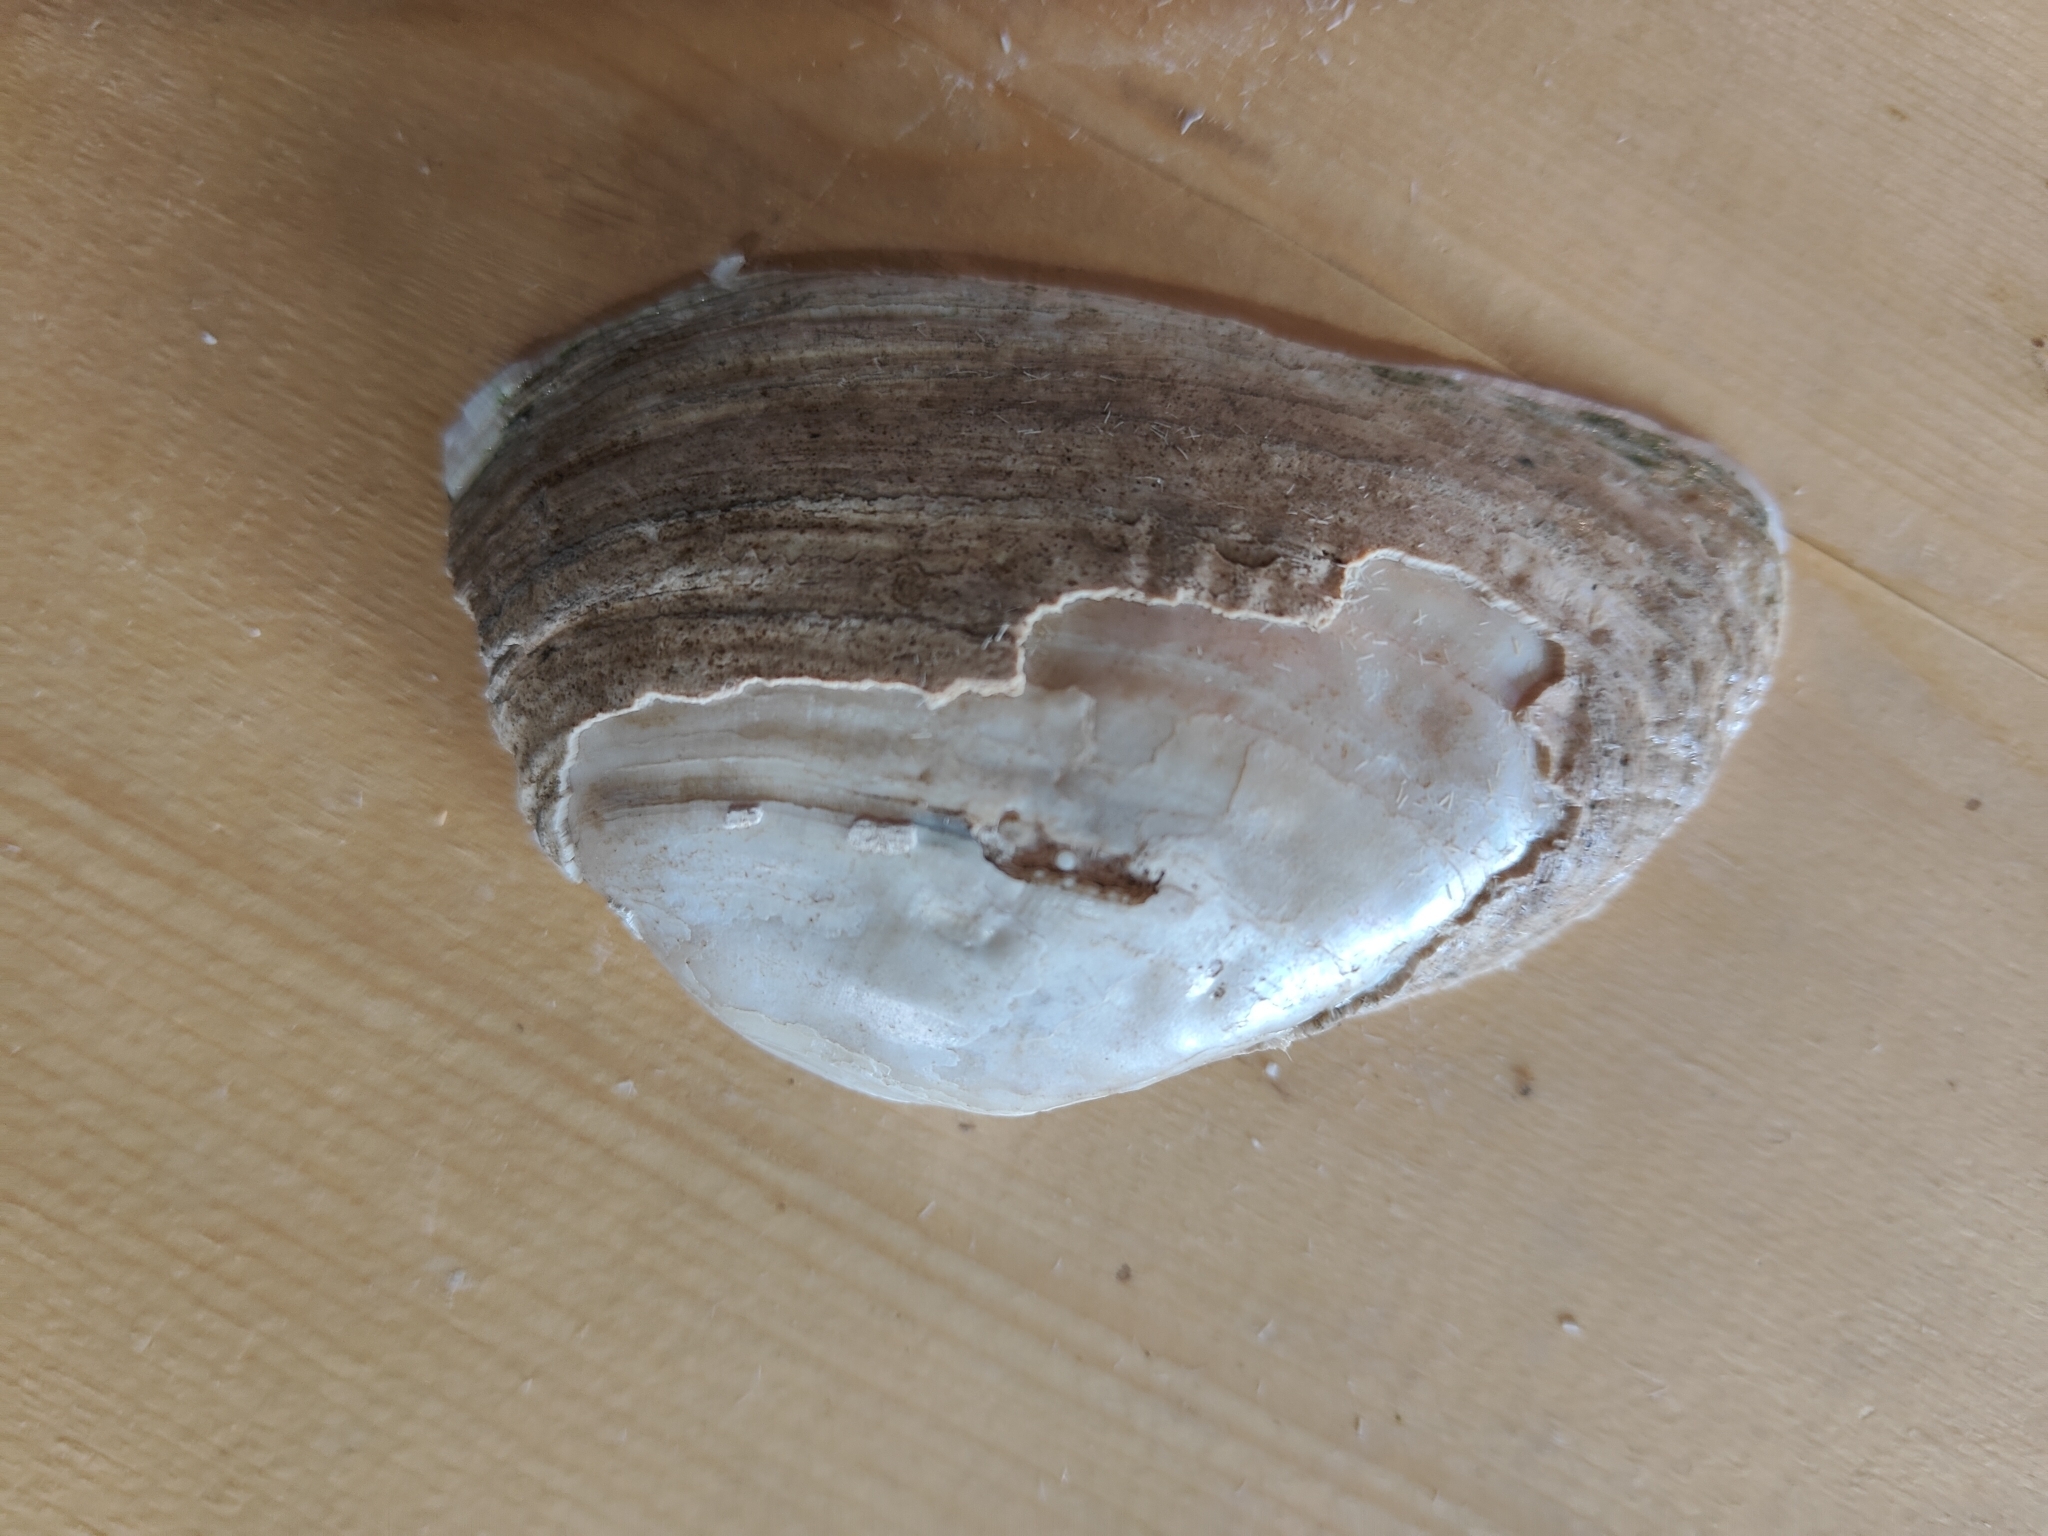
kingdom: Animalia
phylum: Mollusca
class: Bivalvia
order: Unionida
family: Unionidae
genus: Alasmidonta
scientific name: Alasmidonta marginata
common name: Elktoe
